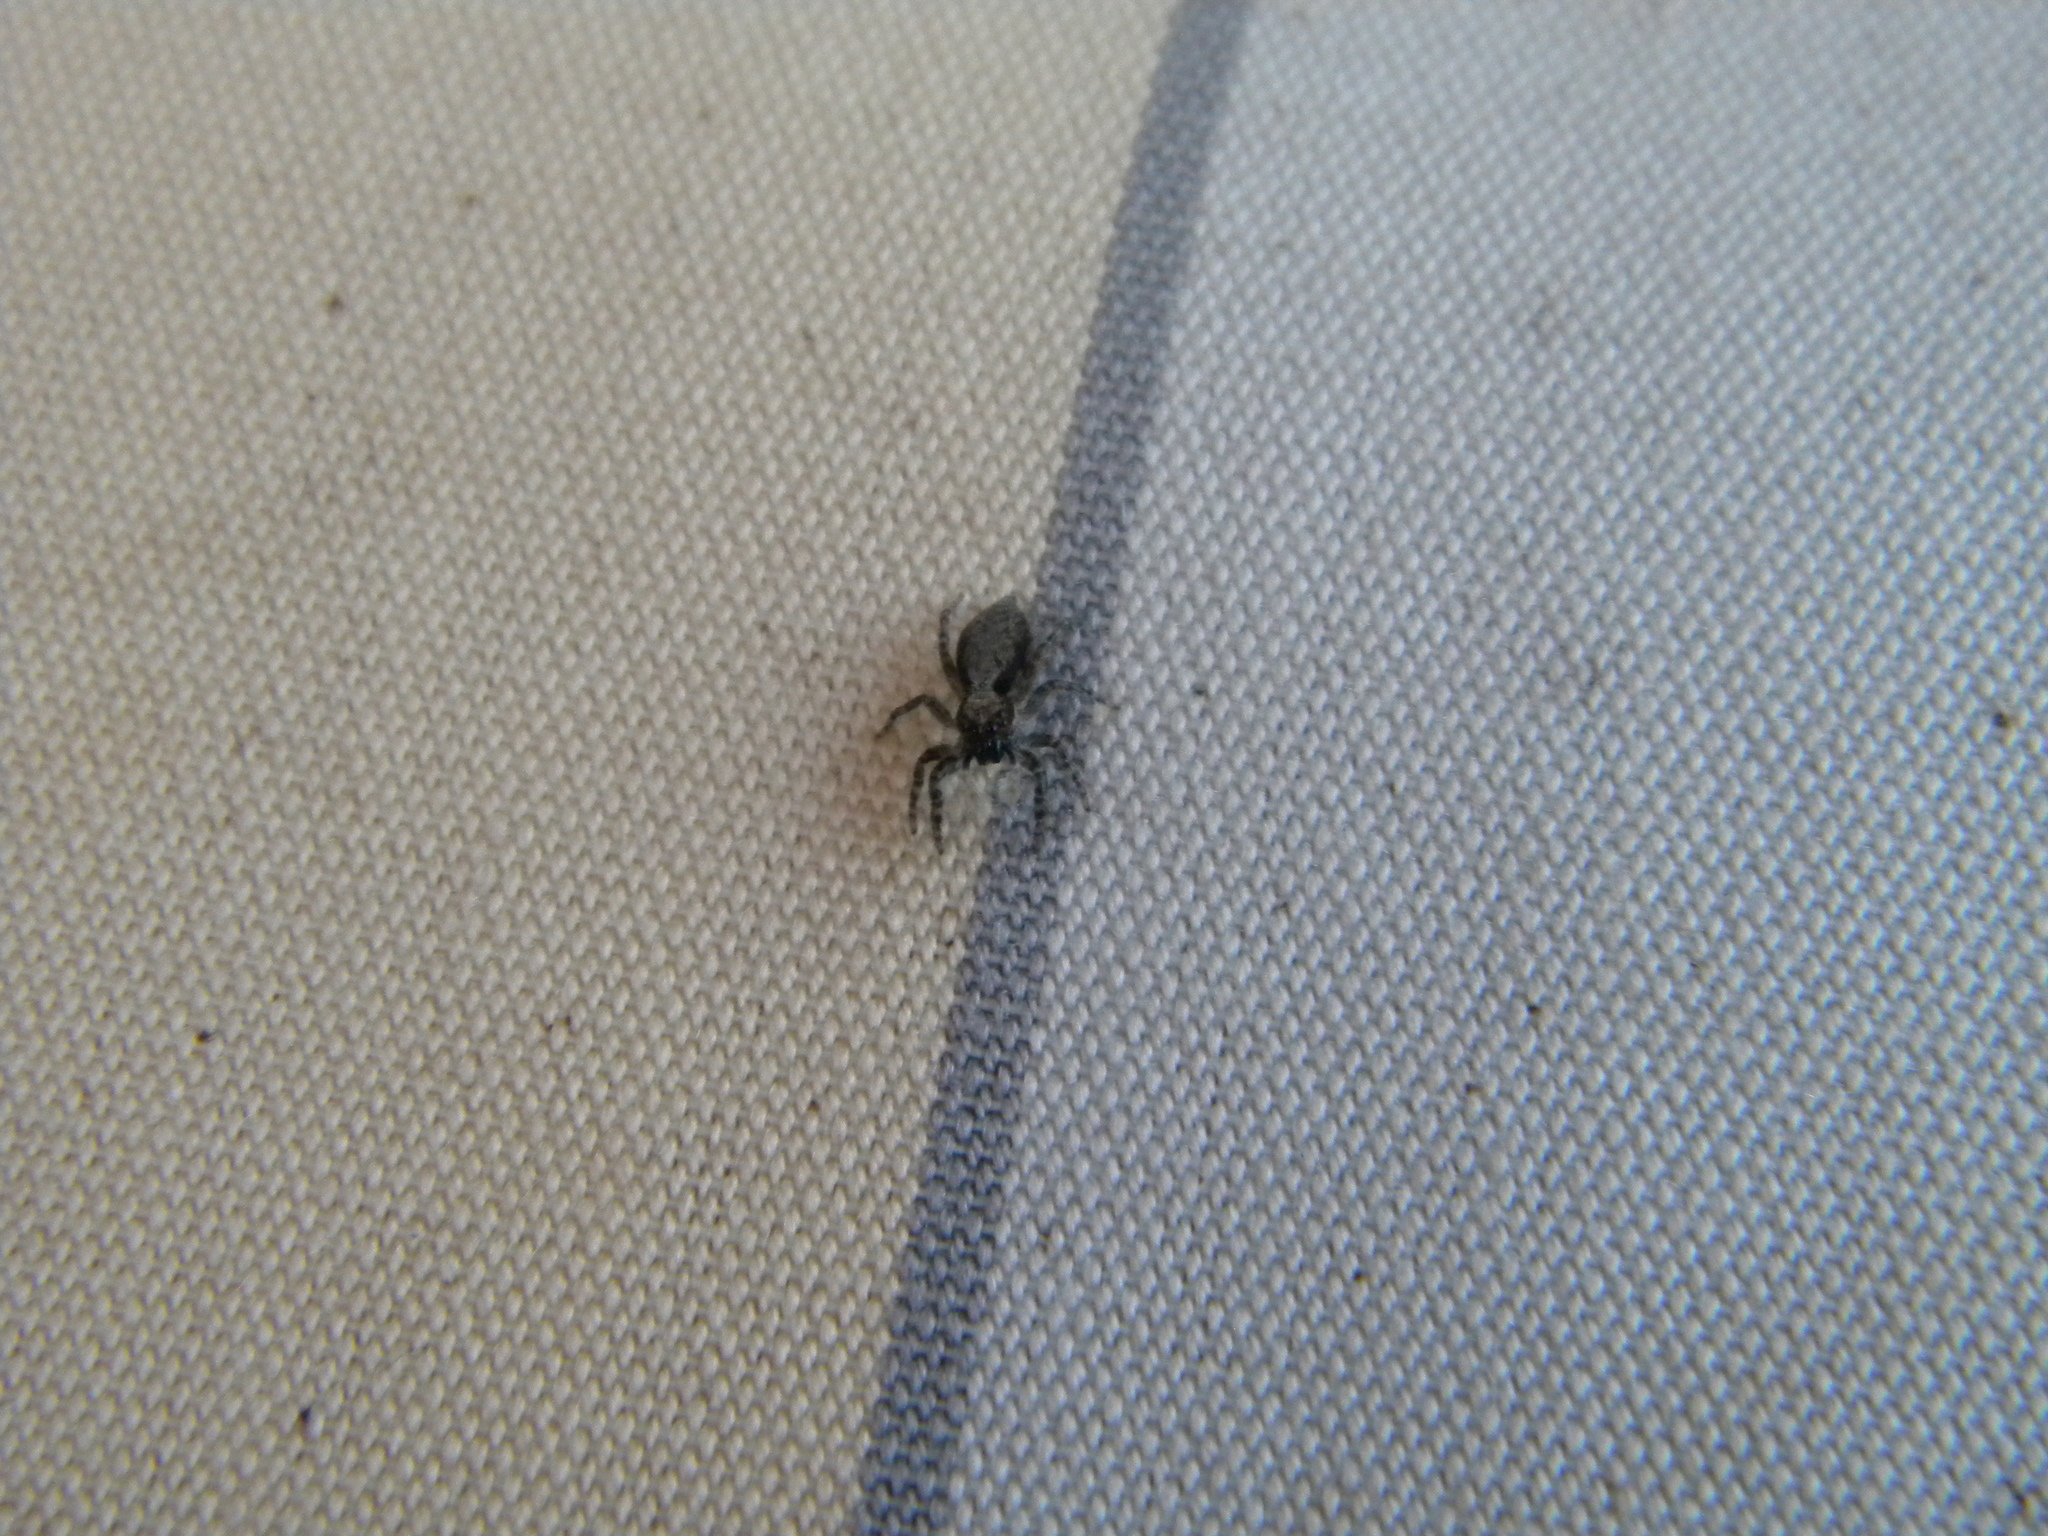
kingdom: Animalia
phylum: Arthropoda
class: Arachnida
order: Araneae
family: Salticidae
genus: Menemerus
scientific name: Menemerus taeniatus
